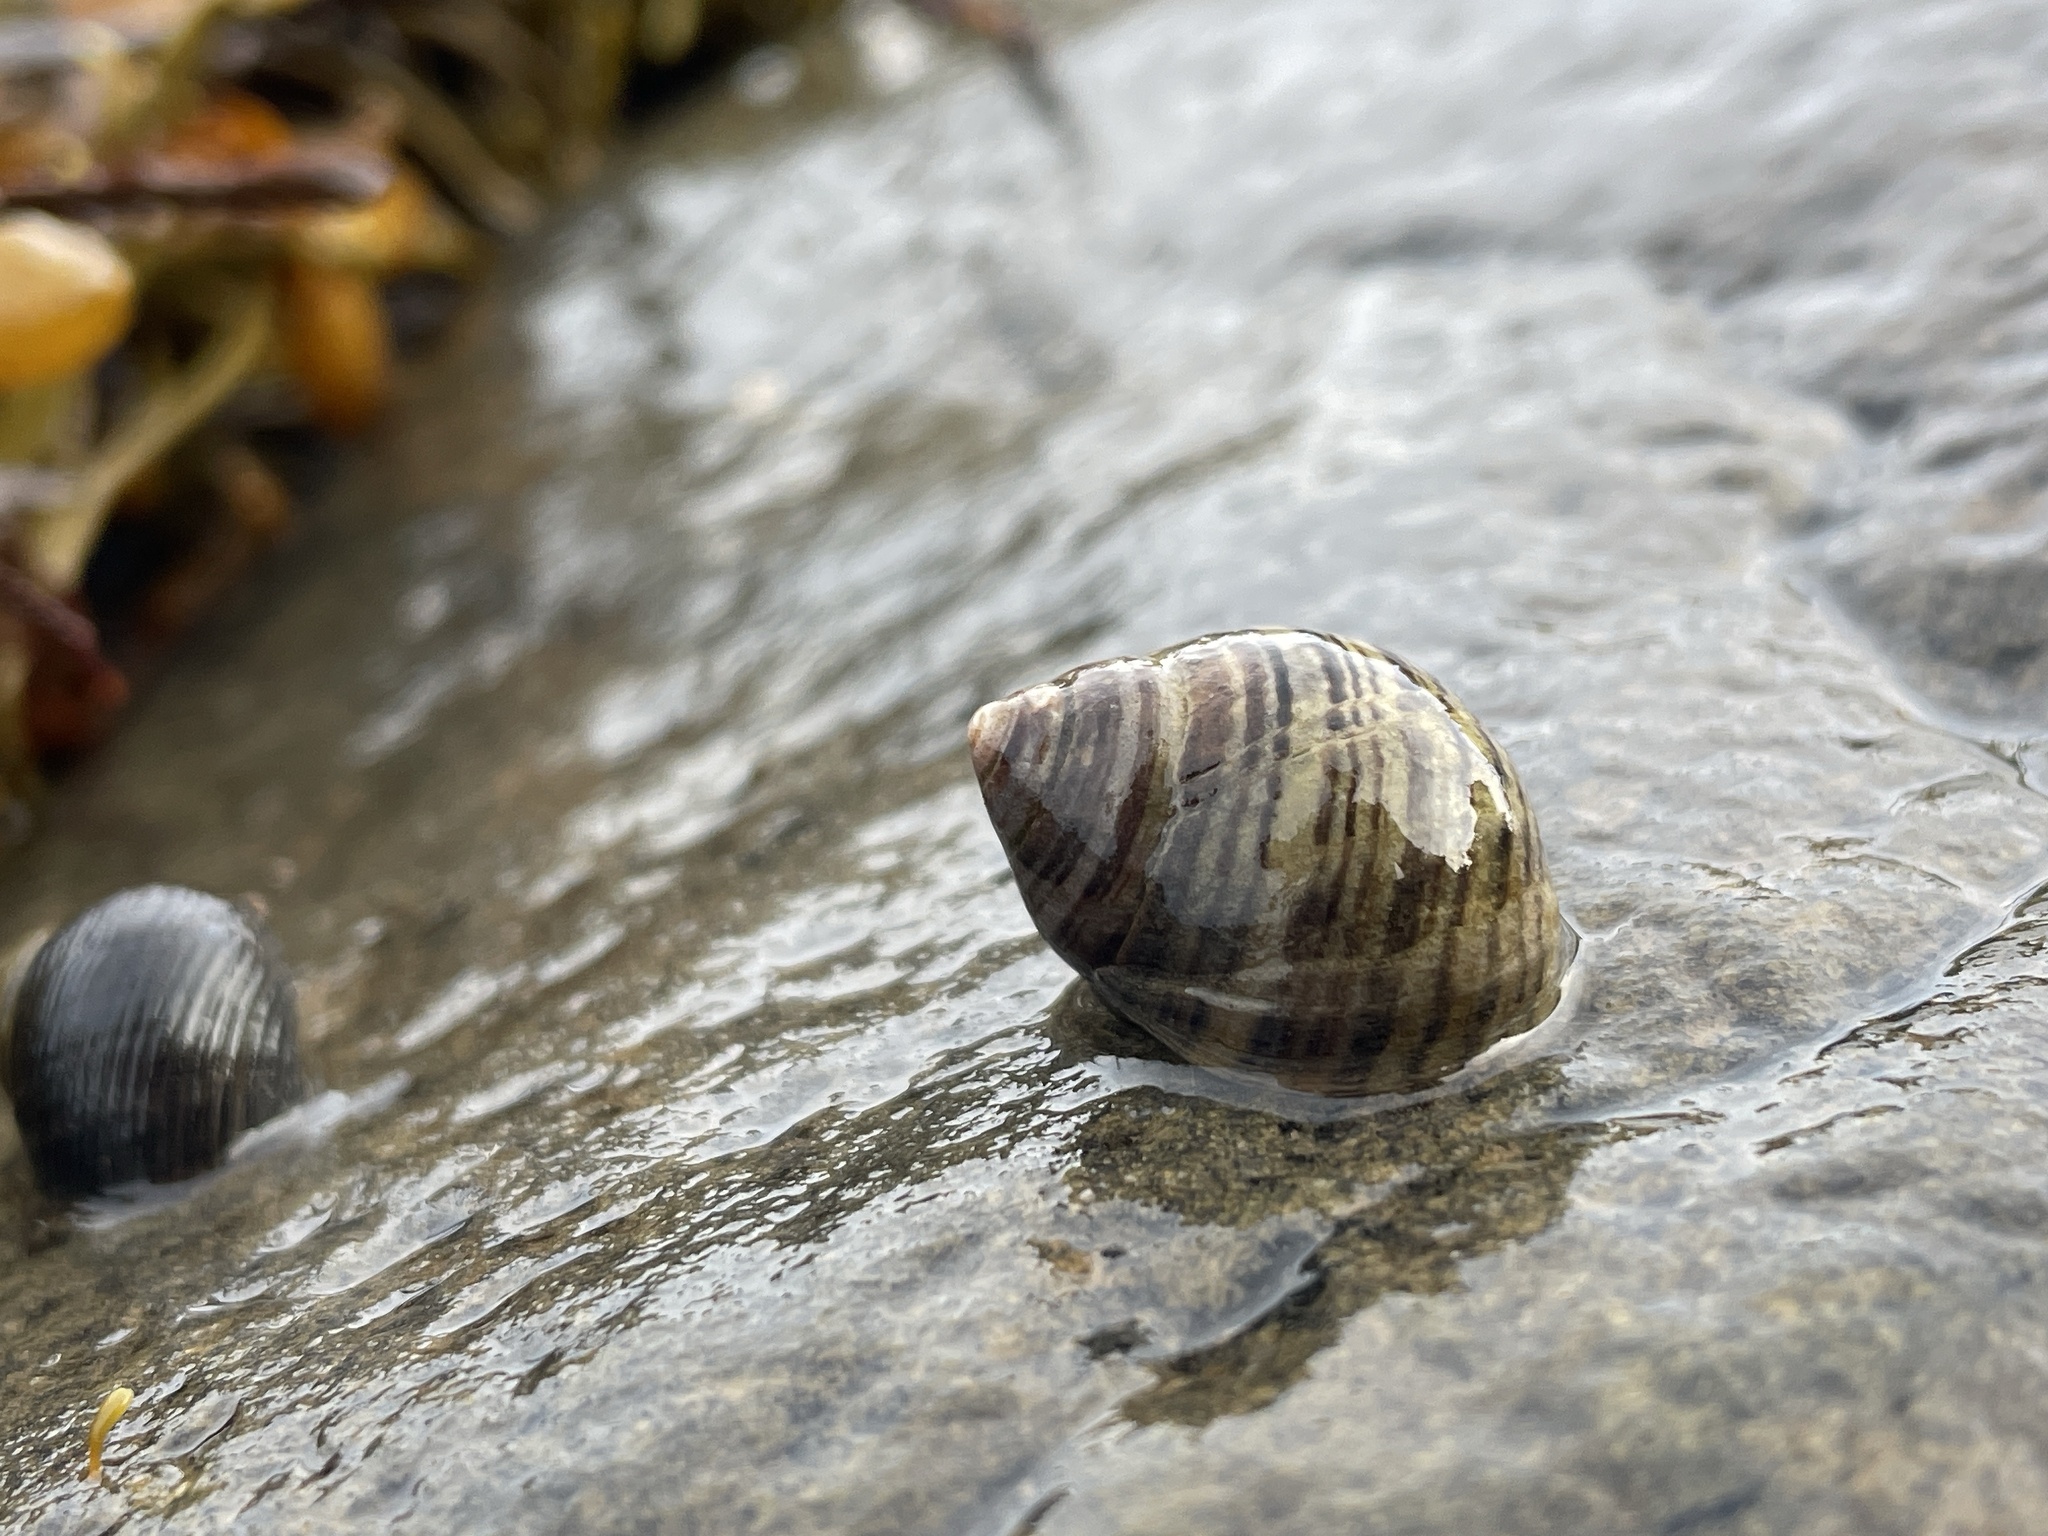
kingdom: Animalia
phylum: Mollusca
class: Gastropoda
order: Littorinimorpha
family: Littorinidae
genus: Littorina
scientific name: Littorina littorea
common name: Common periwinkle
